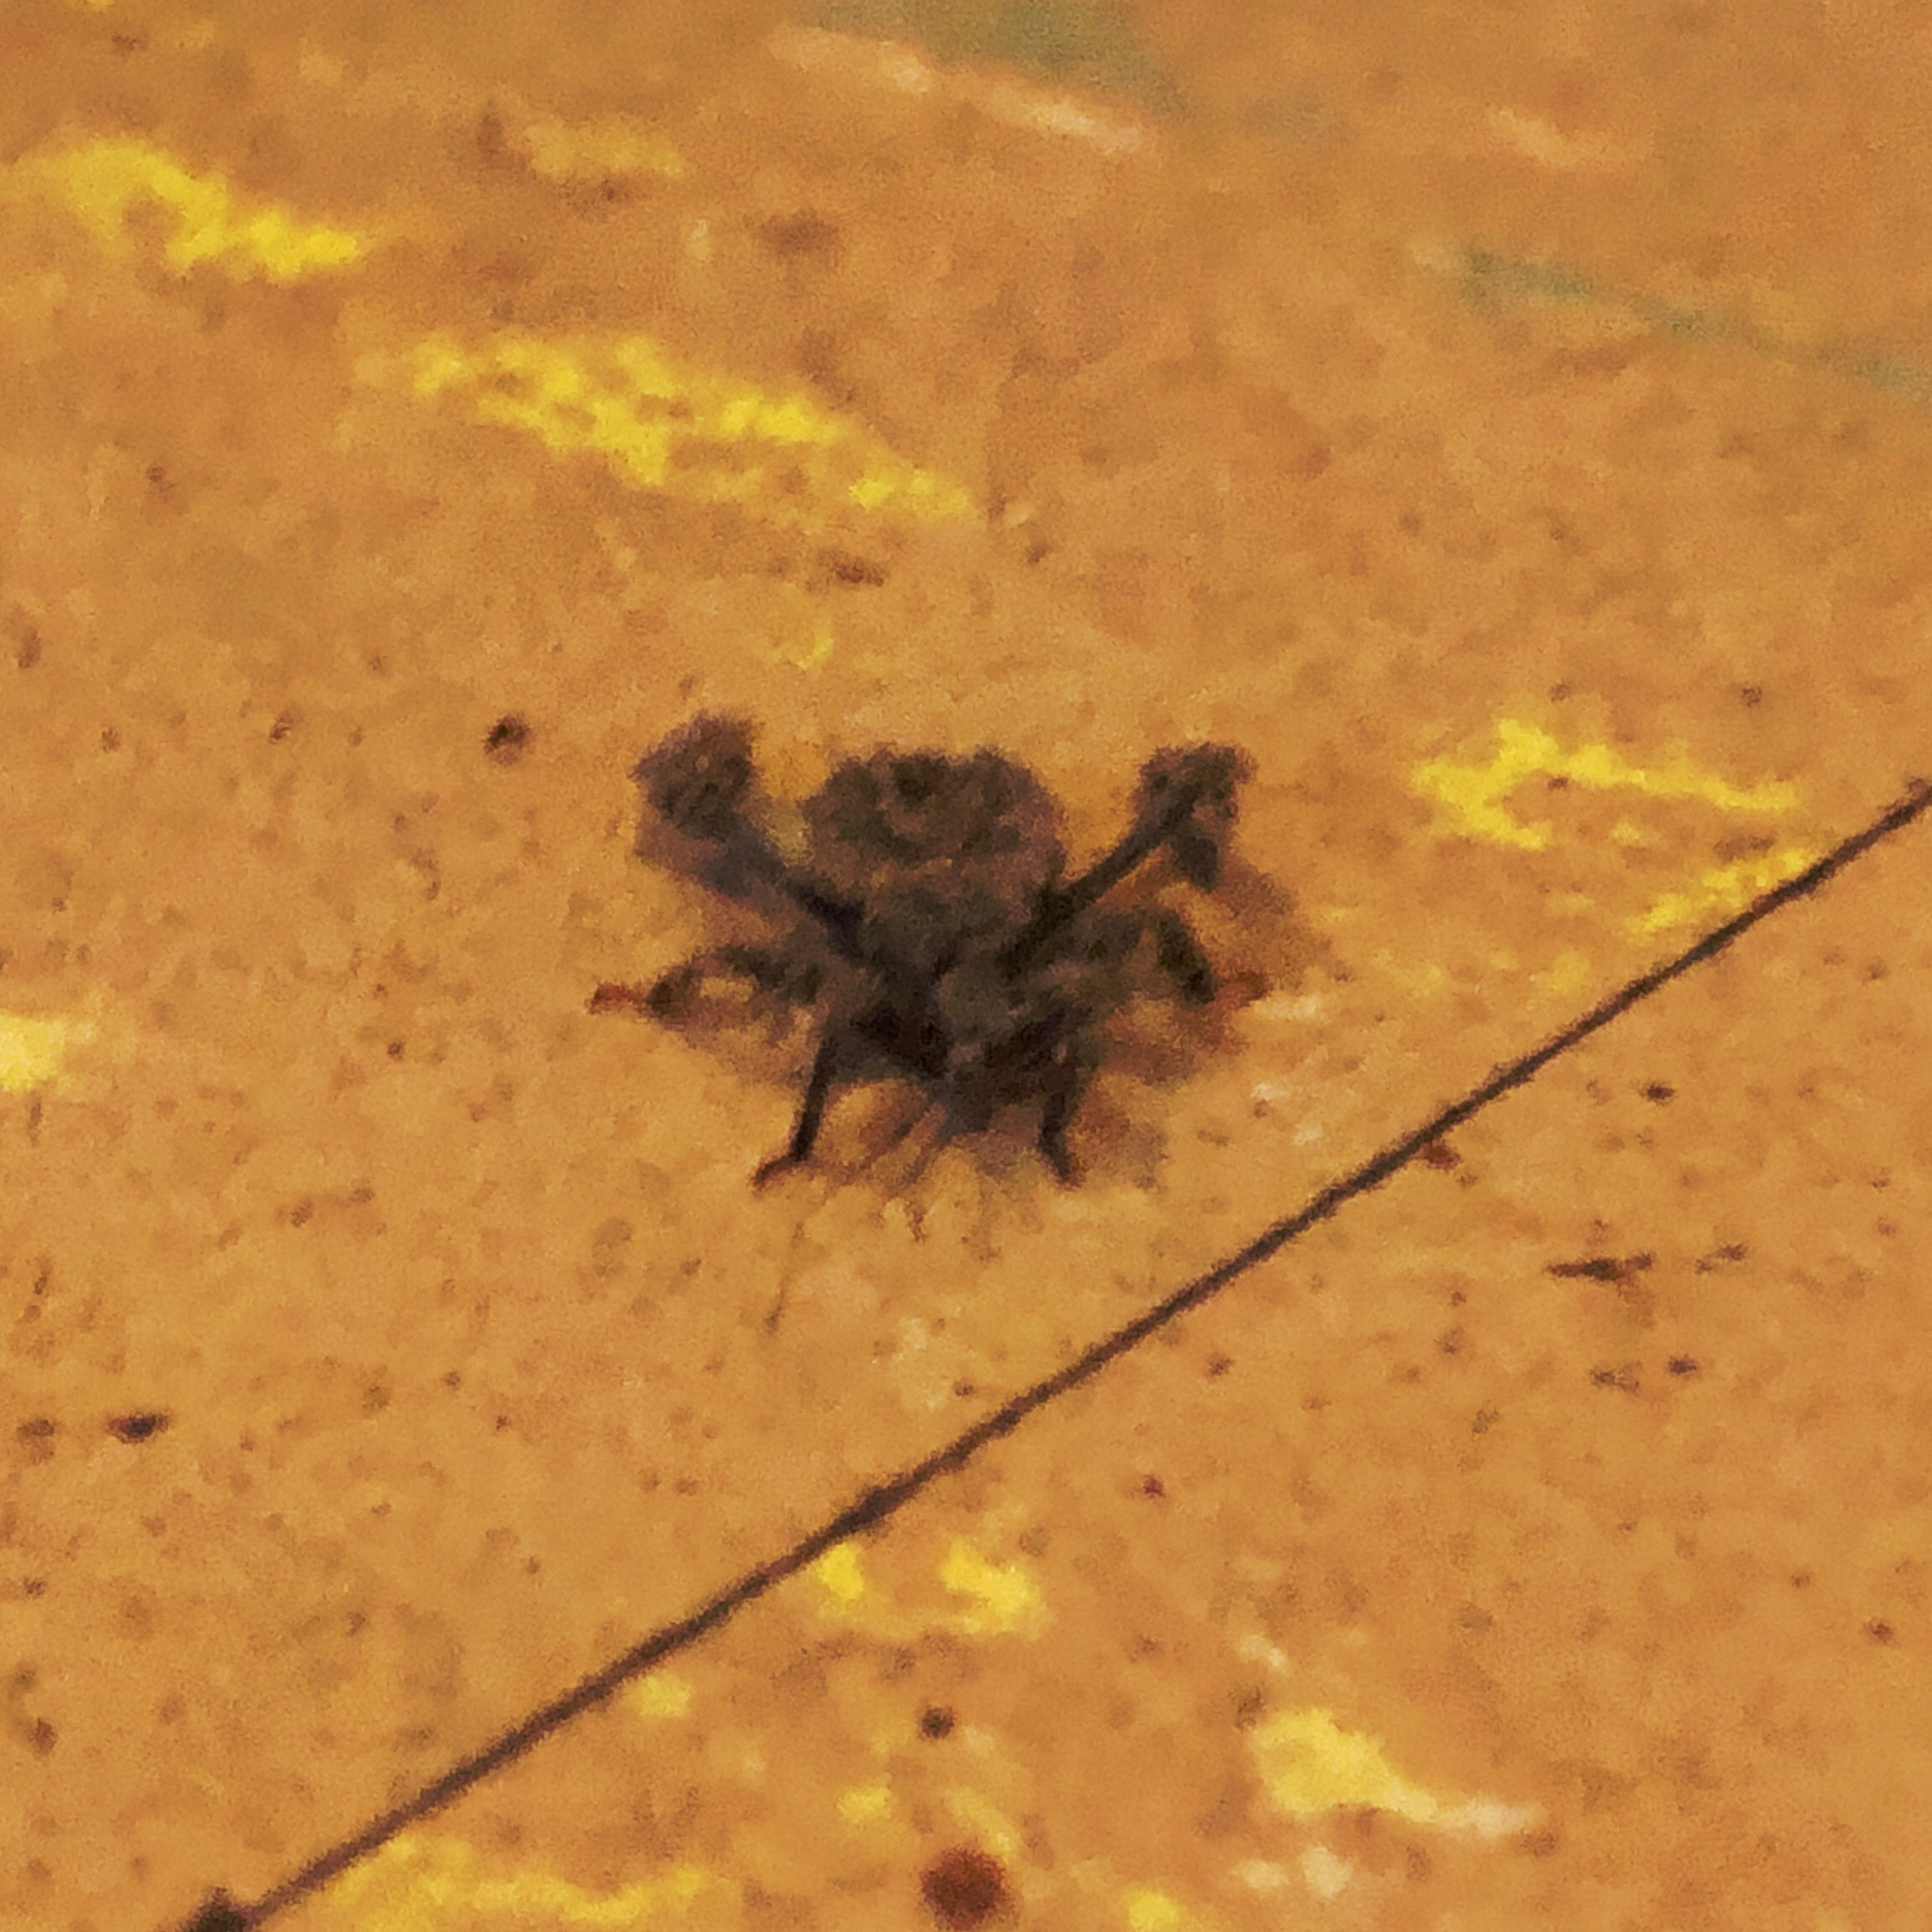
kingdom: Animalia
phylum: Arthropoda
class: Insecta
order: Hemiptera
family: Reduviidae
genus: Reduvius
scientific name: Reduvius personatus
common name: Masked hunter
